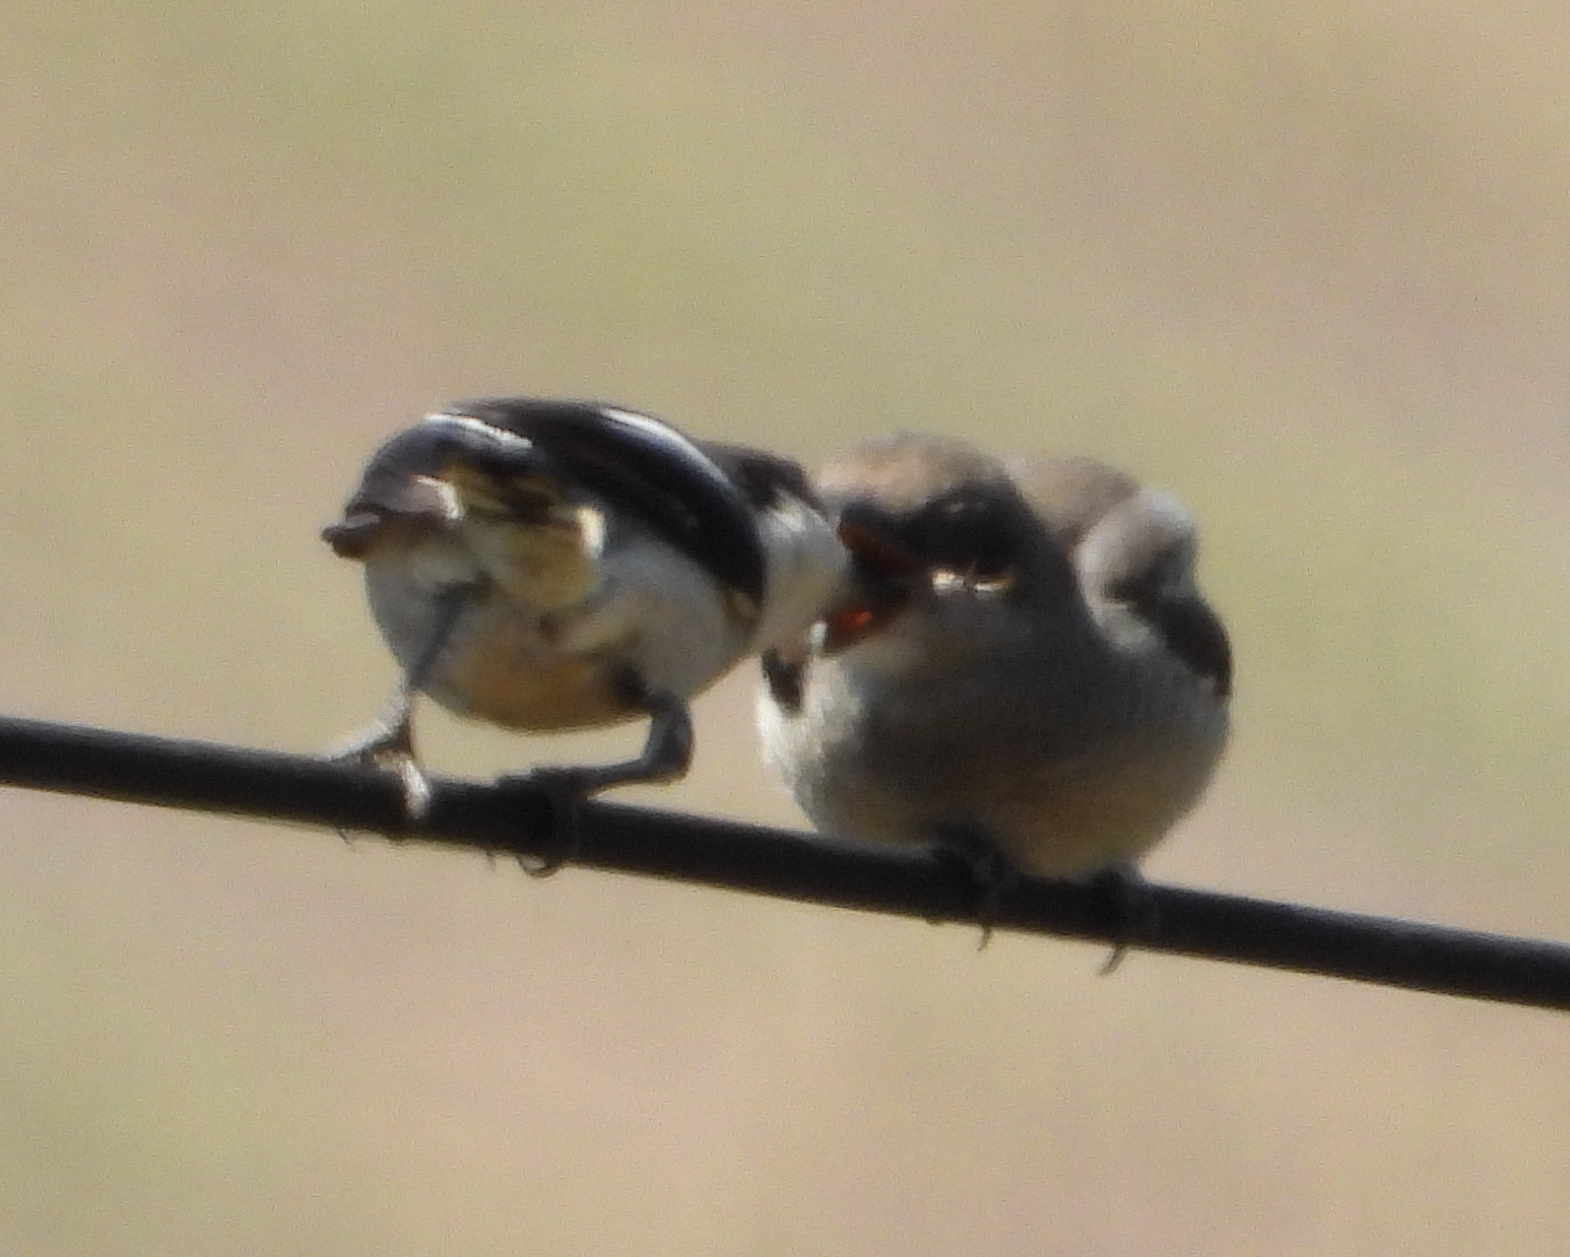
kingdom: Animalia
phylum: Chordata
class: Aves
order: Passeriformes
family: Laniidae
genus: Lanius
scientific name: Lanius collaris
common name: Southern fiscal
